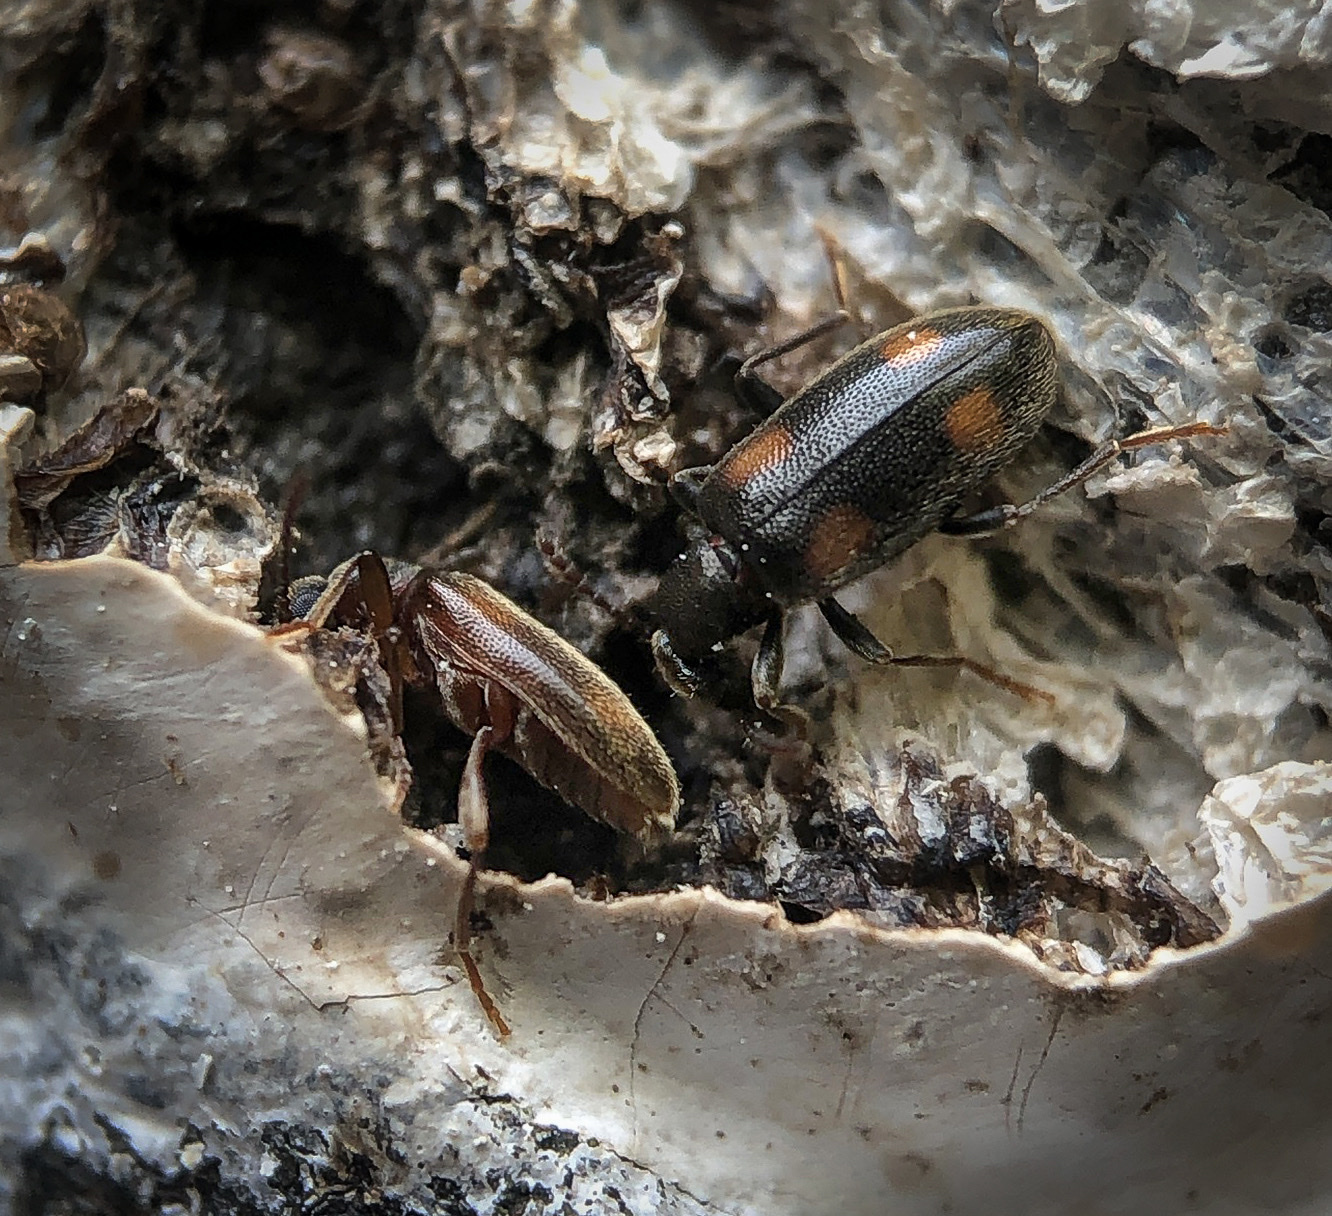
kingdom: Animalia
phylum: Arthropoda
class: Insecta
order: Coleoptera
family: Anthicidae
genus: Anthicus
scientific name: Anthicus haldemani
